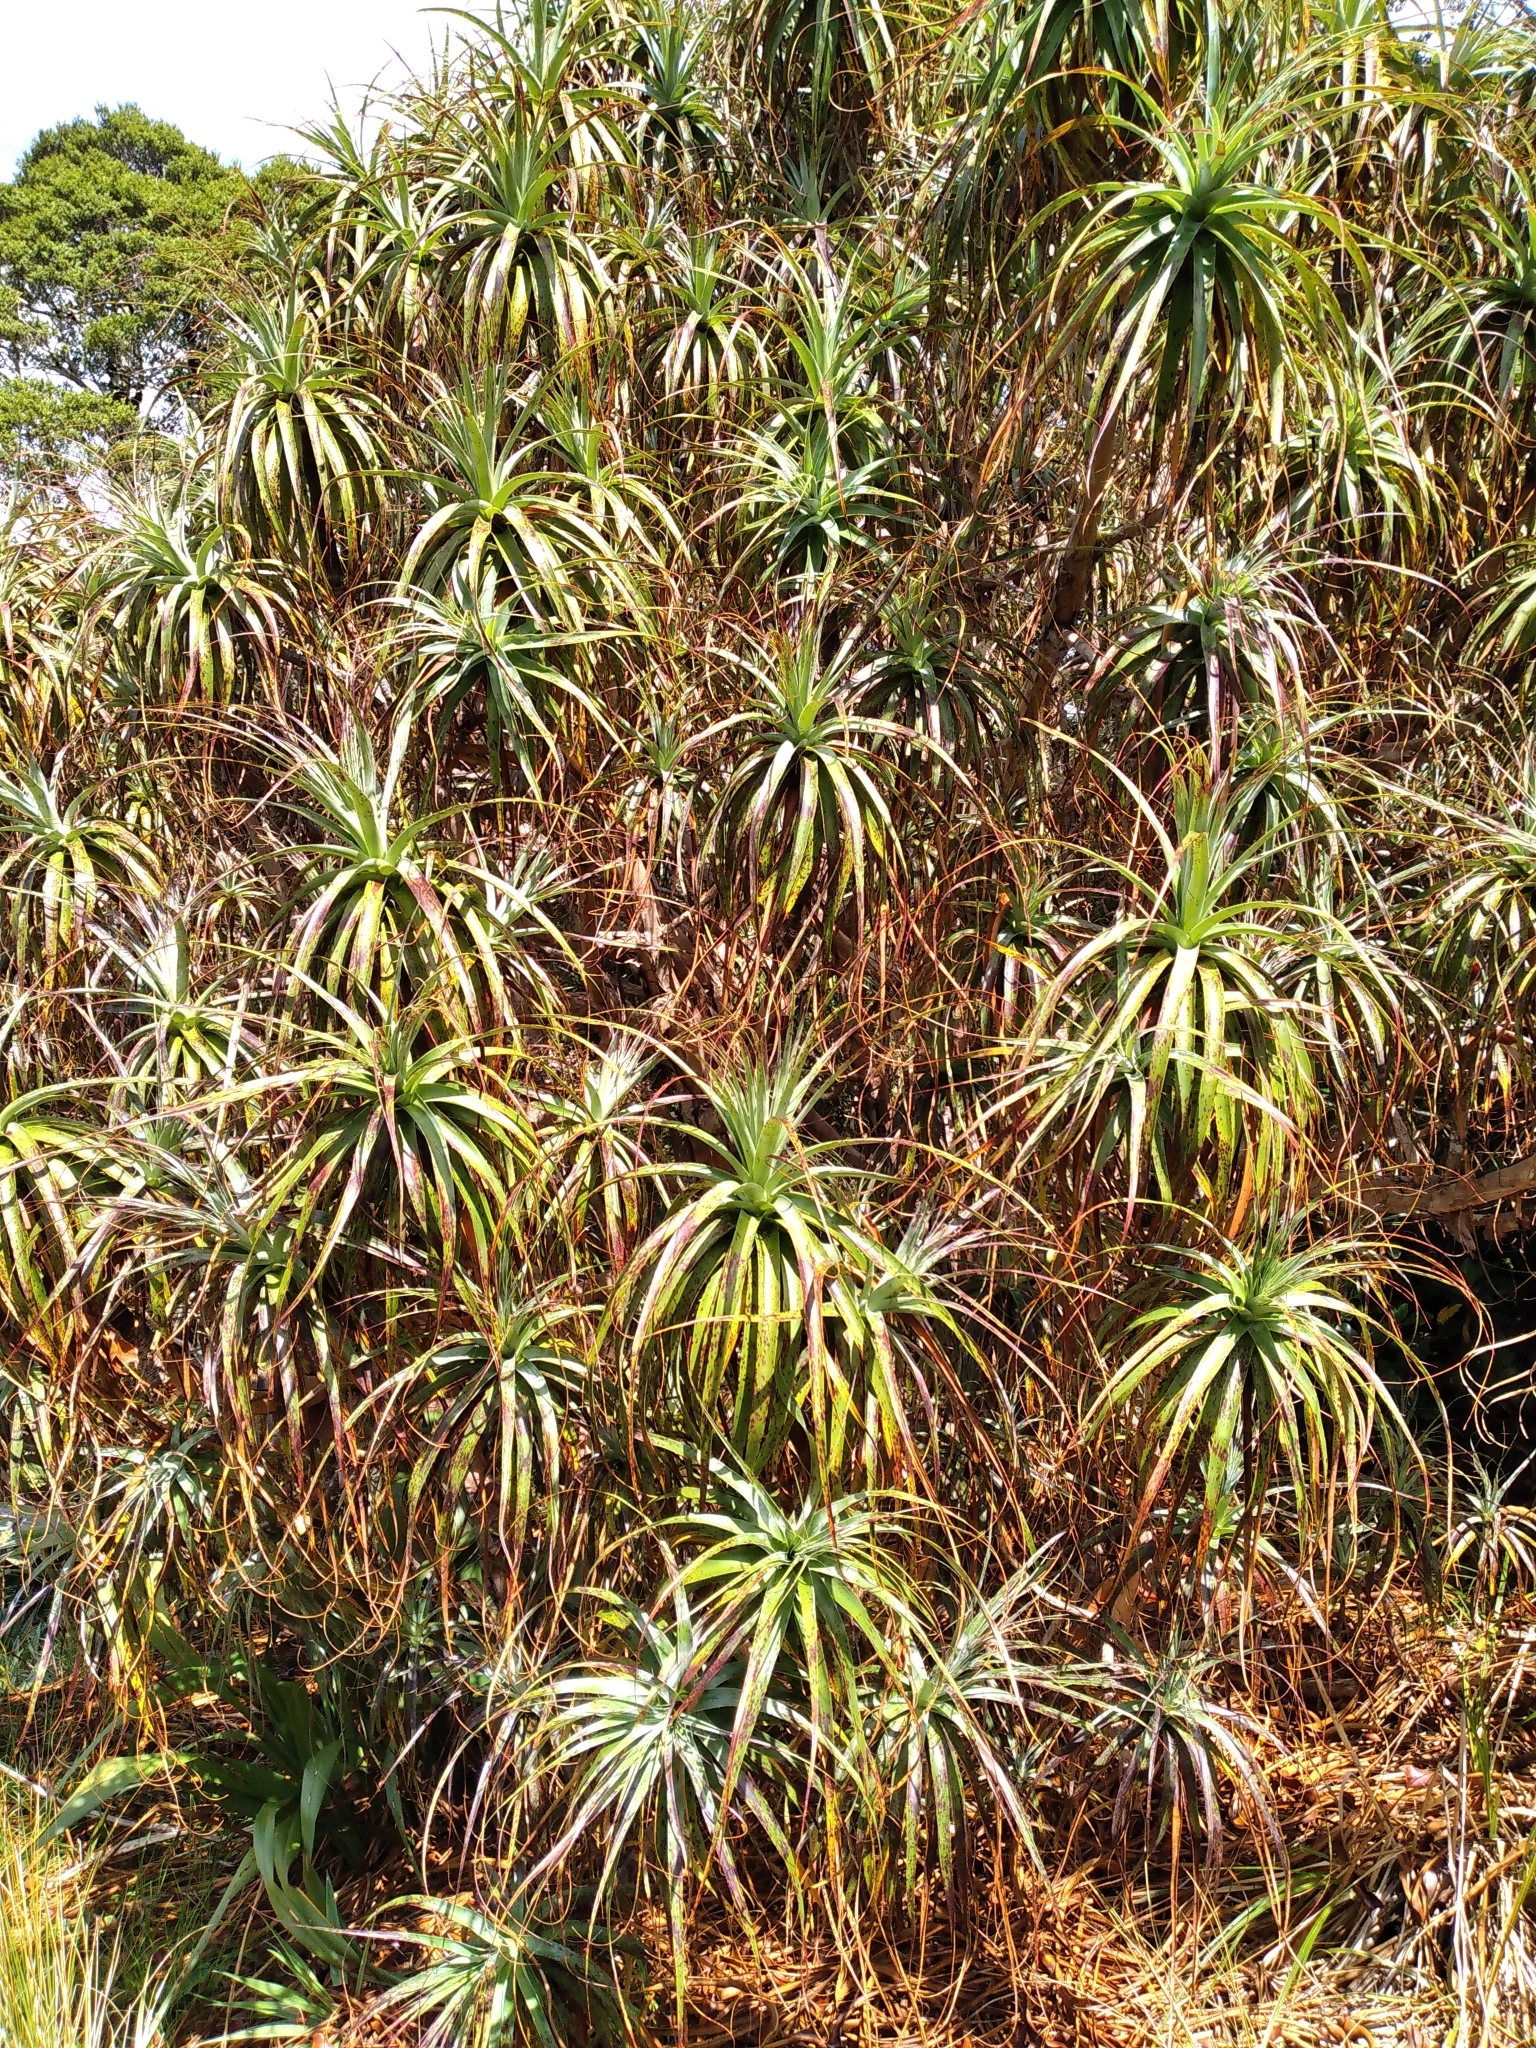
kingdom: Plantae
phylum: Tracheophyta
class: Magnoliopsida
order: Ericales
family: Ericaceae
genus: Dracophyllum
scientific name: Dracophyllum traversii
